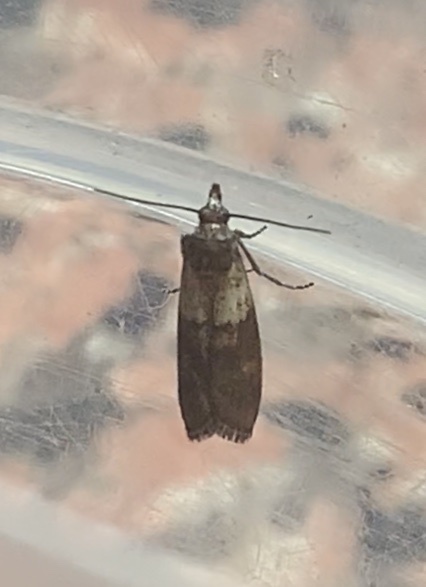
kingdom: Animalia
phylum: Arthropoda
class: Insecta
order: Lepidoptera
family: Pyralidae
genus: Plodia
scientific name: Plodia interpunctella
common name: Indian meal moth
